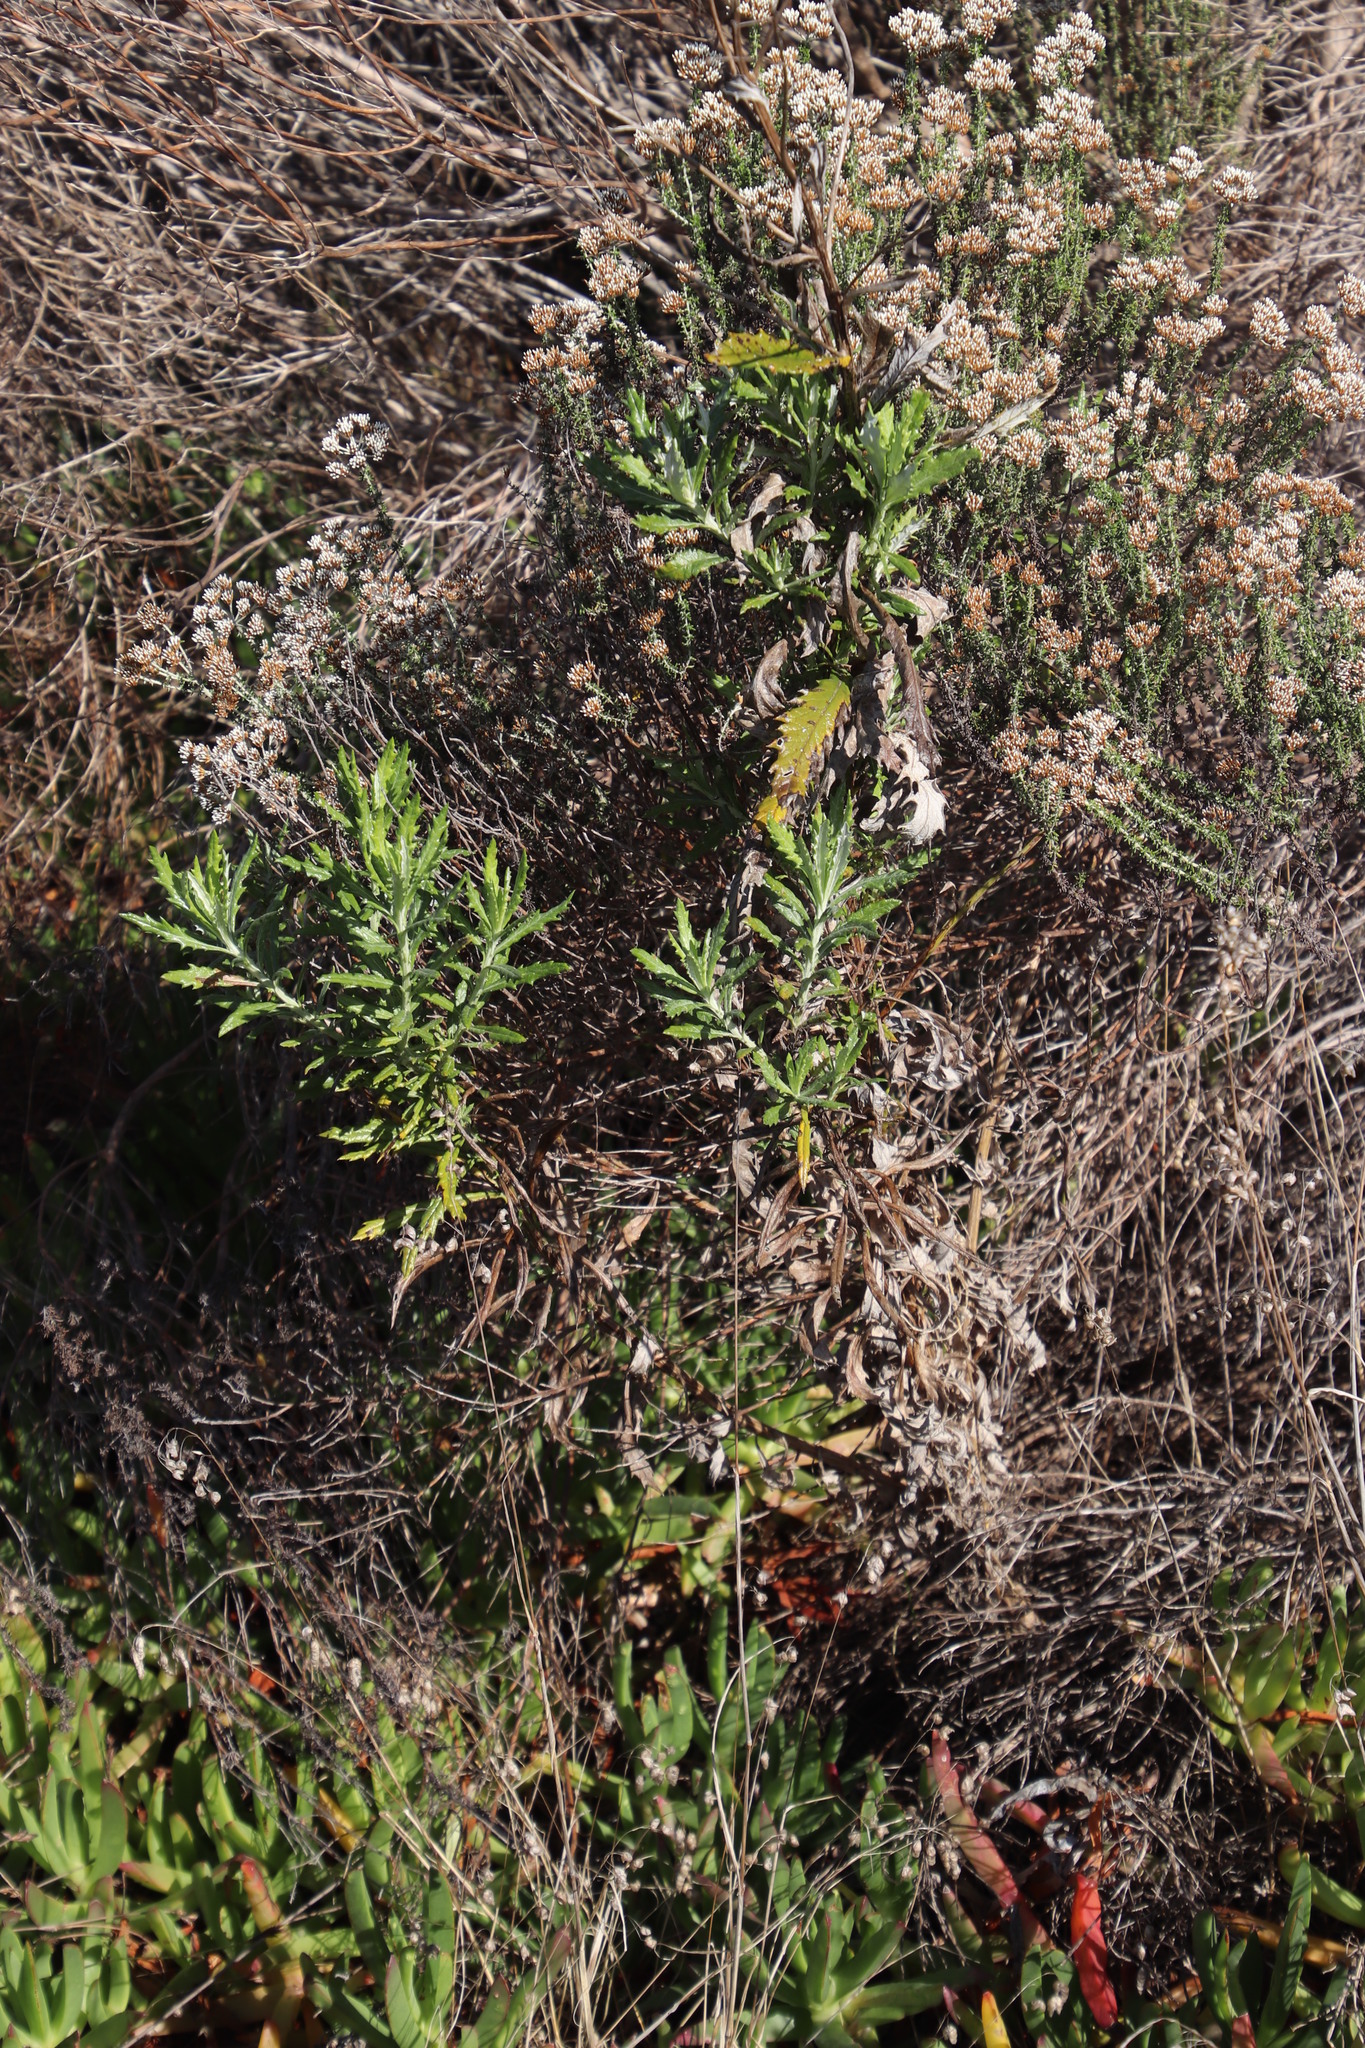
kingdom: Plantae
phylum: Tracheophyta
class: Magnoliopsida
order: Asterales
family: Asteraceae
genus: Senecio
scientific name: Senecio pterophorus
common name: Shoddy ragwort
